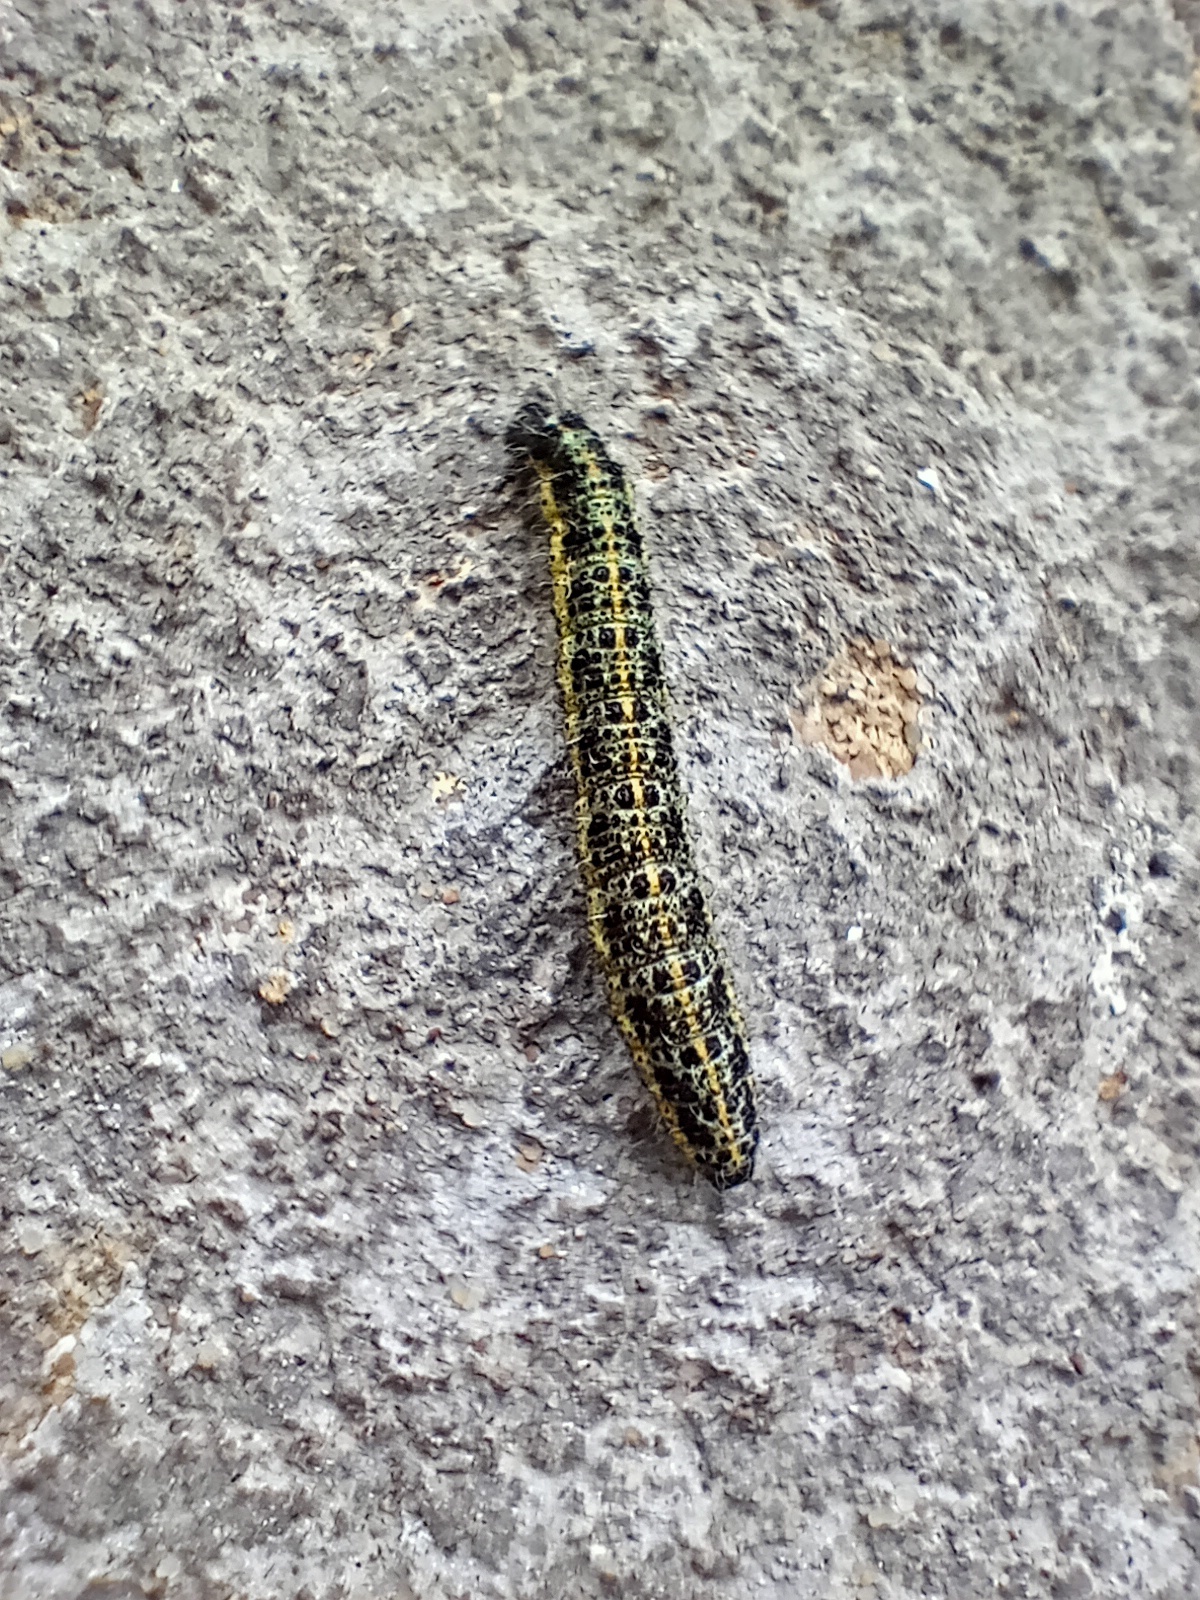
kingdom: Animalia
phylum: Arthropoda
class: Insecta
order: Lepidoptera
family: Pieridae
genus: Pieris
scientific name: Pieris brassicae
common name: Large white
